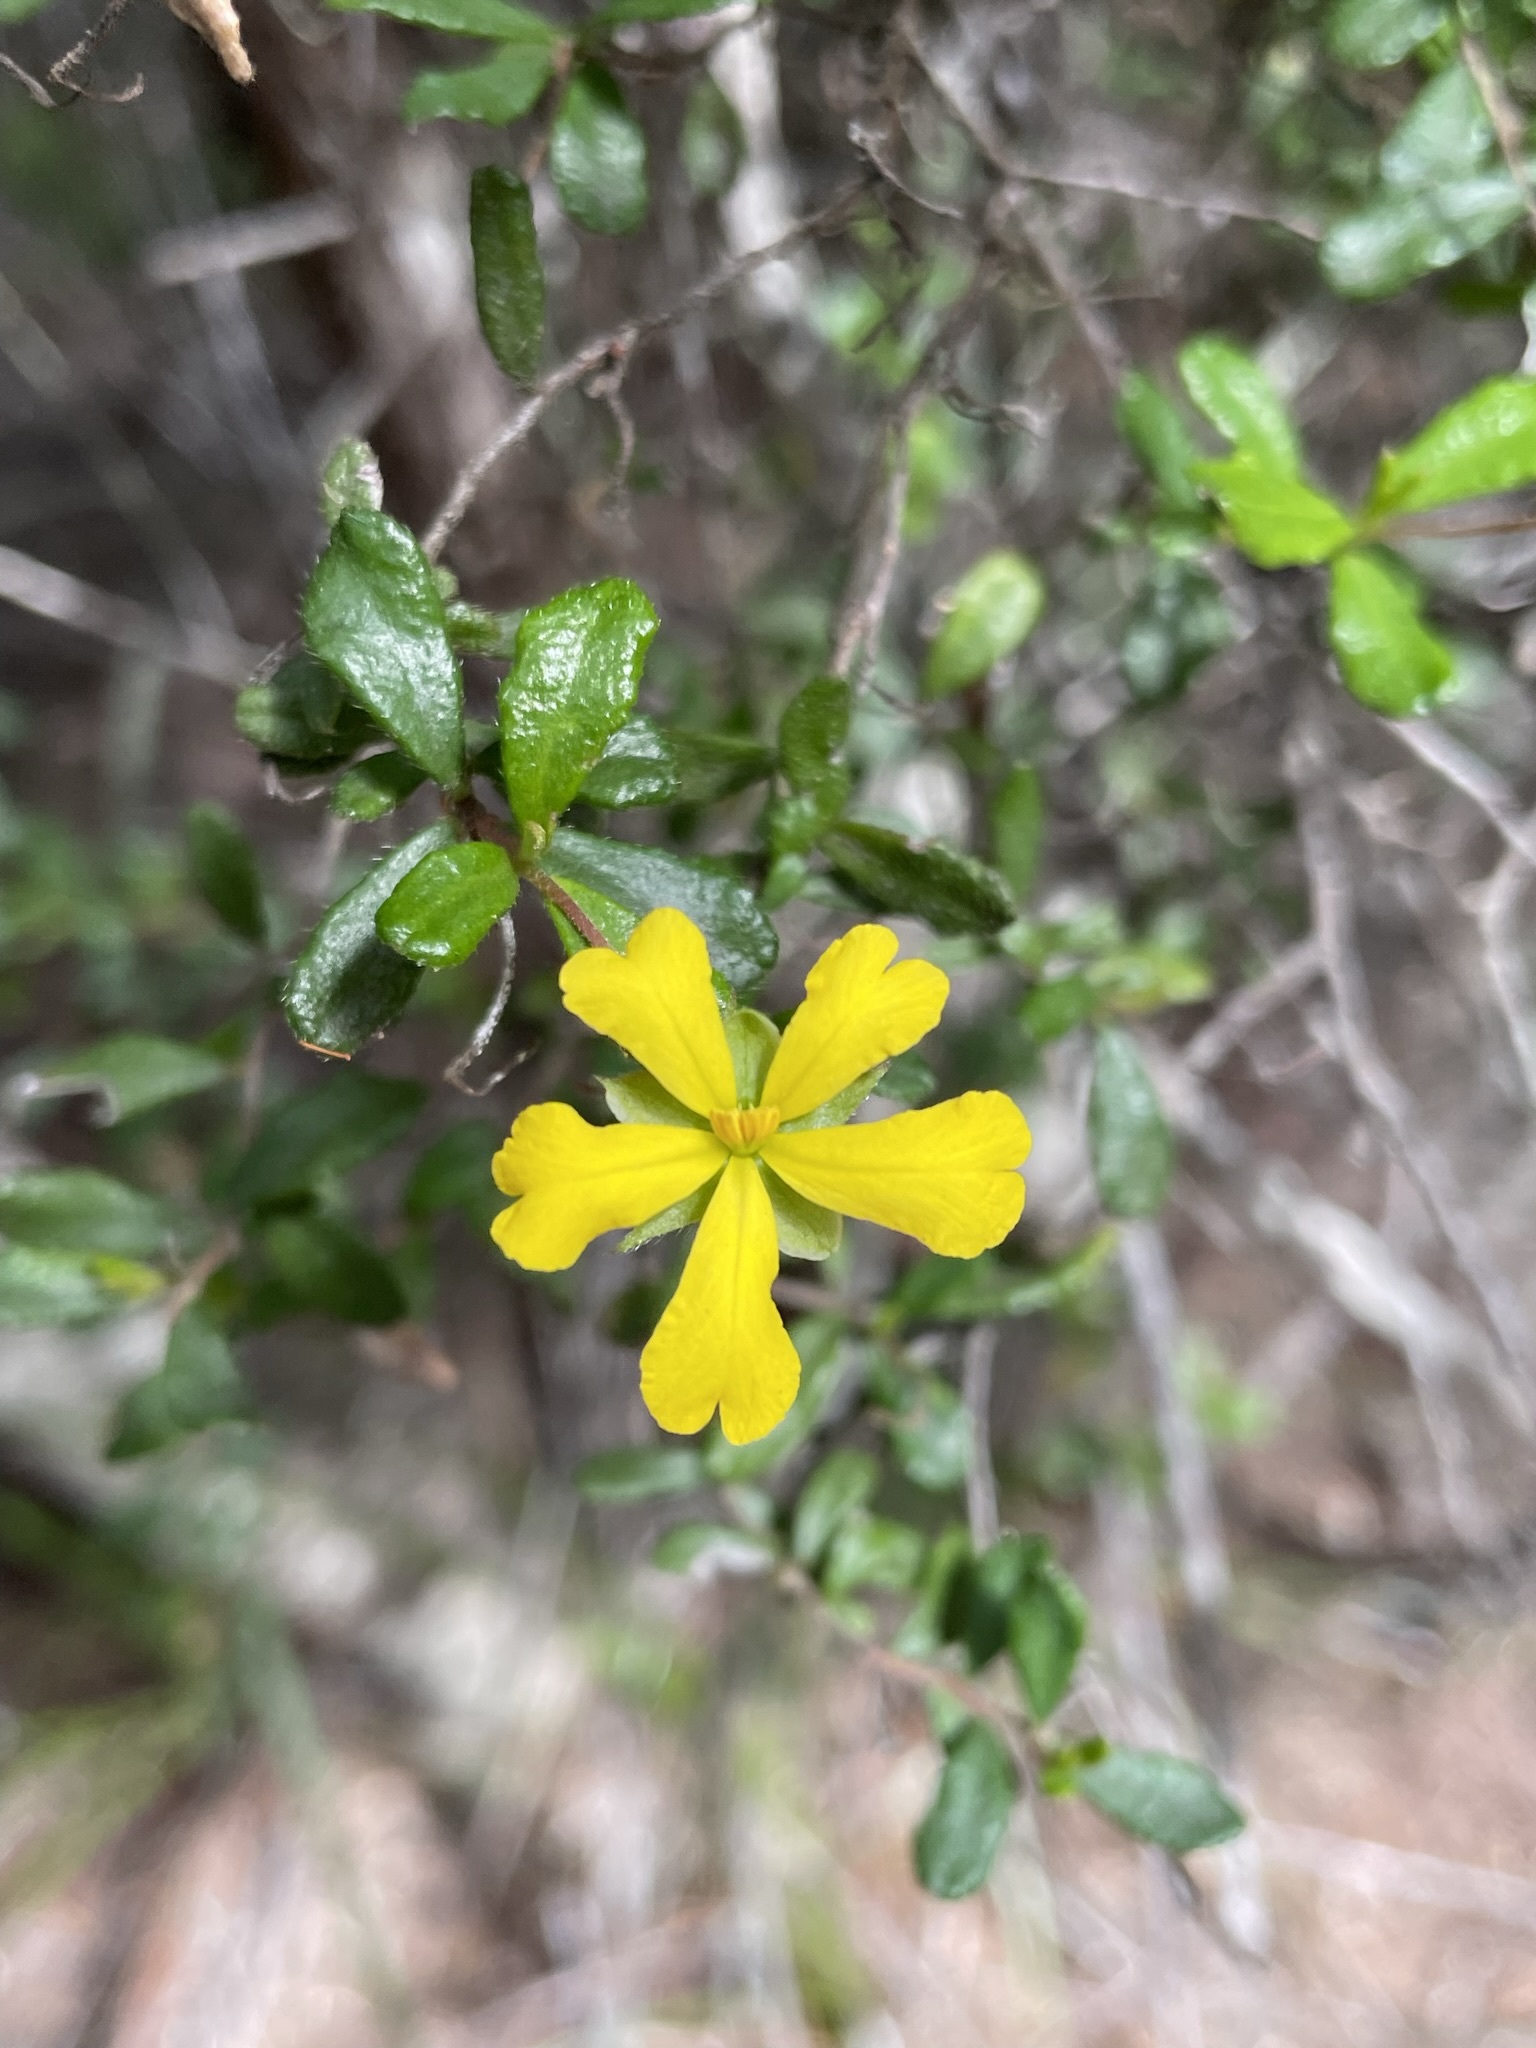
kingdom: Plantae
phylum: Tracheophyta
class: Magnoliopsida
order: Dilleniales
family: Dilleniaceae
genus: Hibbertia
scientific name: Hibbertia hirticalyx
